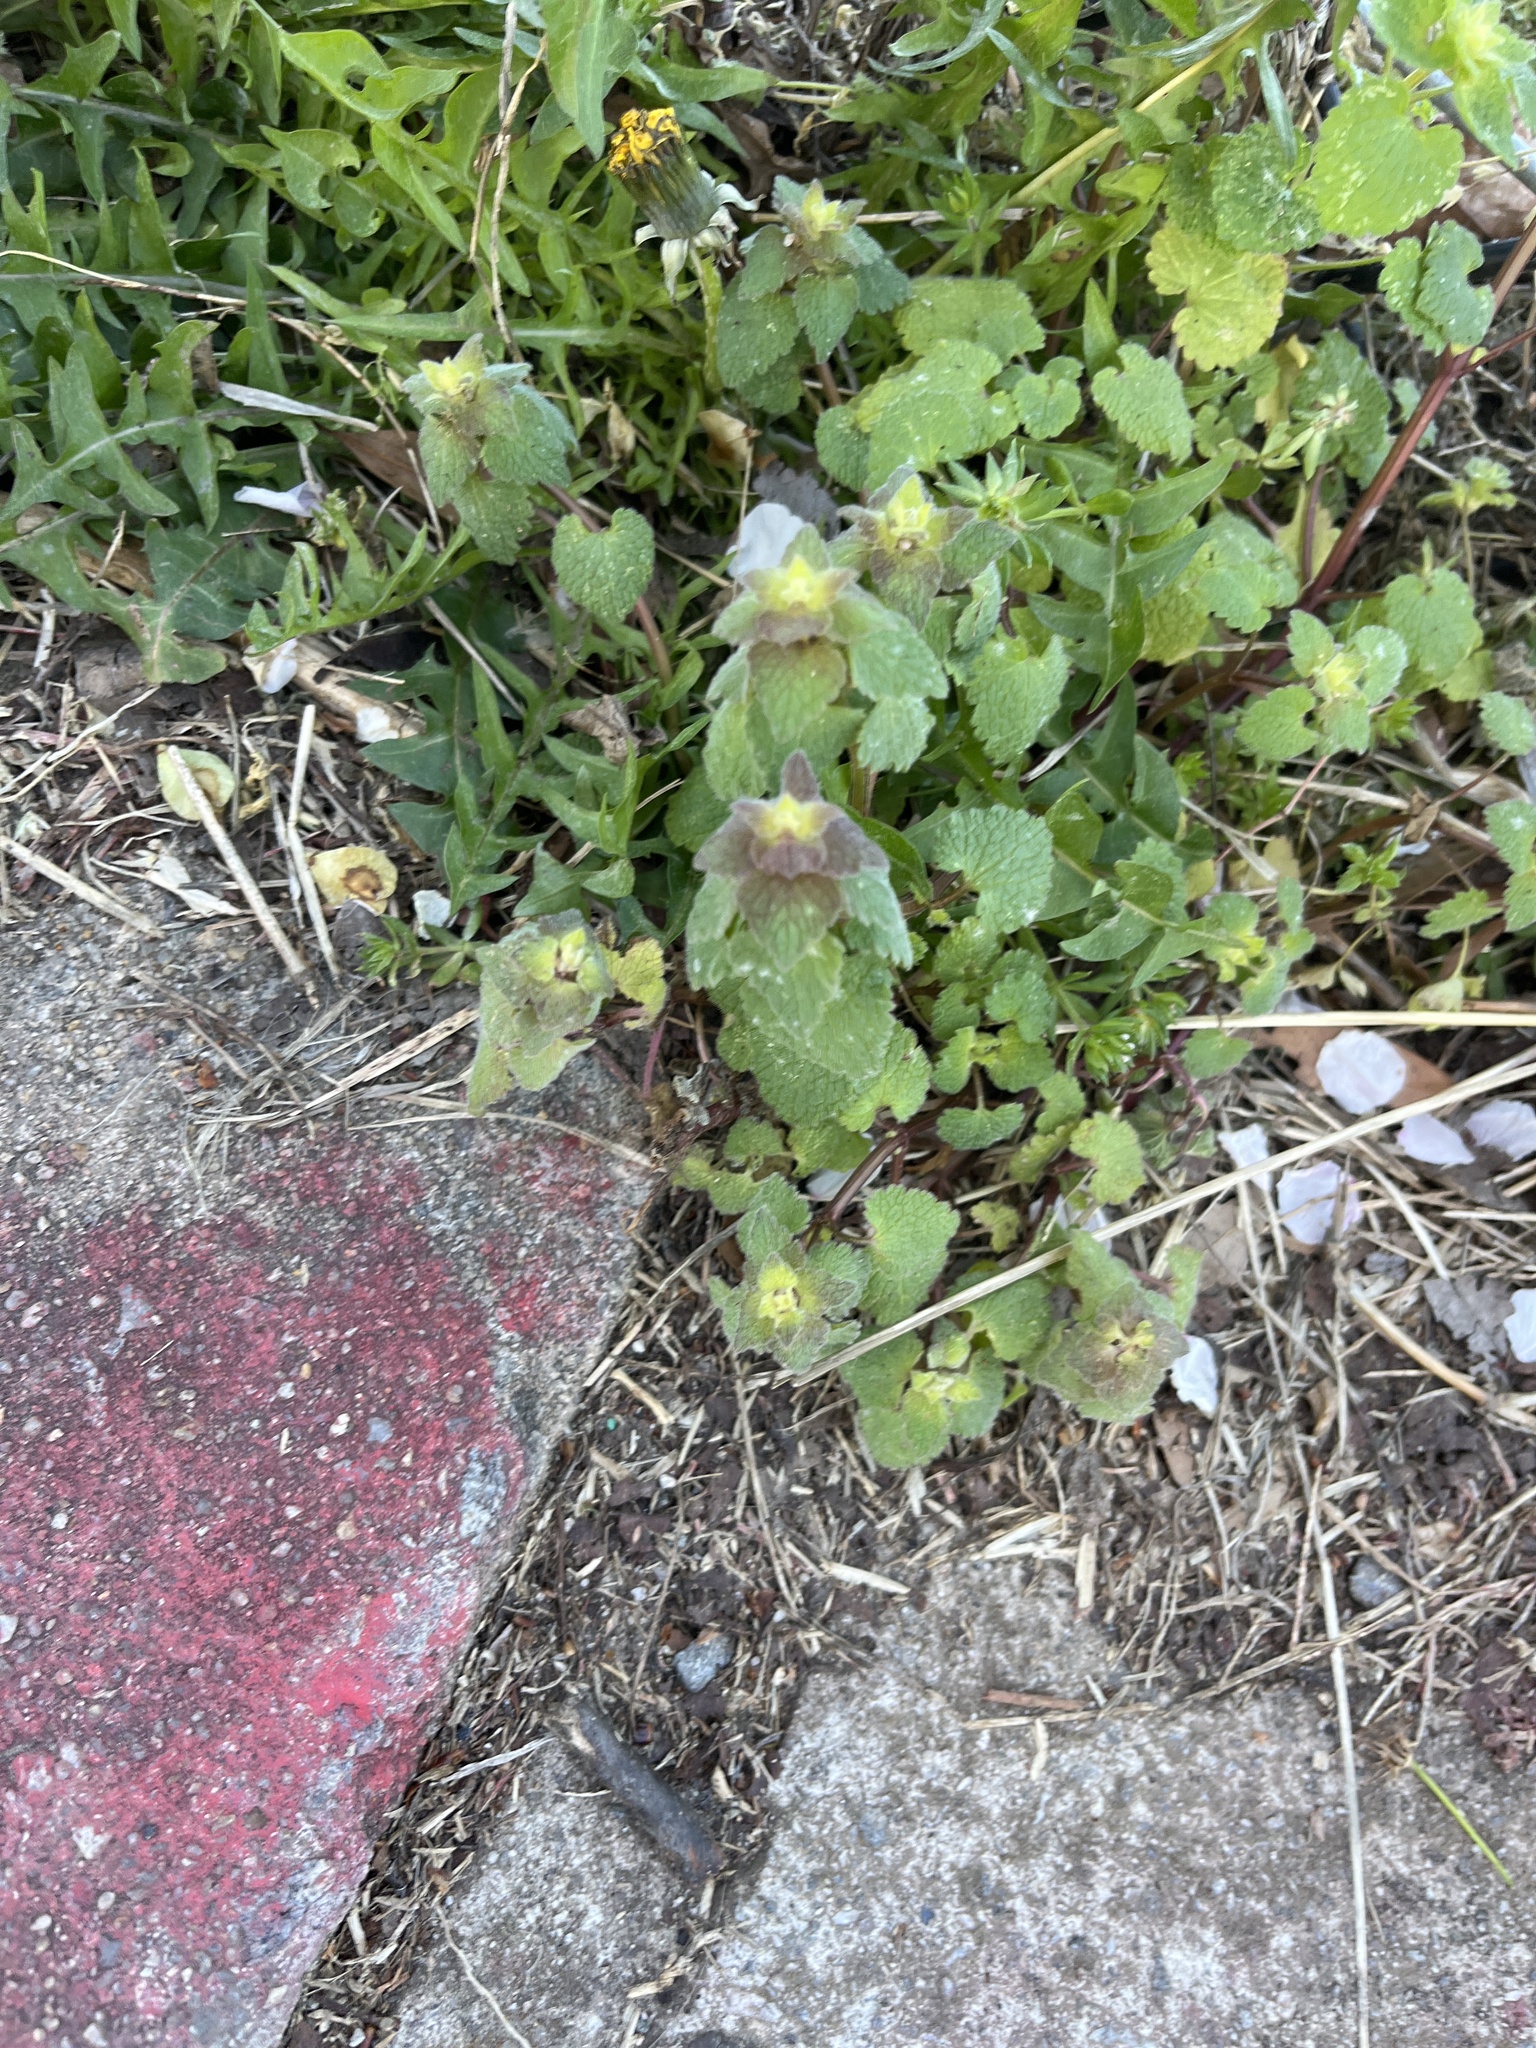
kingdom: Plantae
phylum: Tracheophyta
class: Magnoliopsida
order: Lamiales
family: Lamiaceae
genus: Lamium
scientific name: Lamium purpureum
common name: Red dead-nettle
